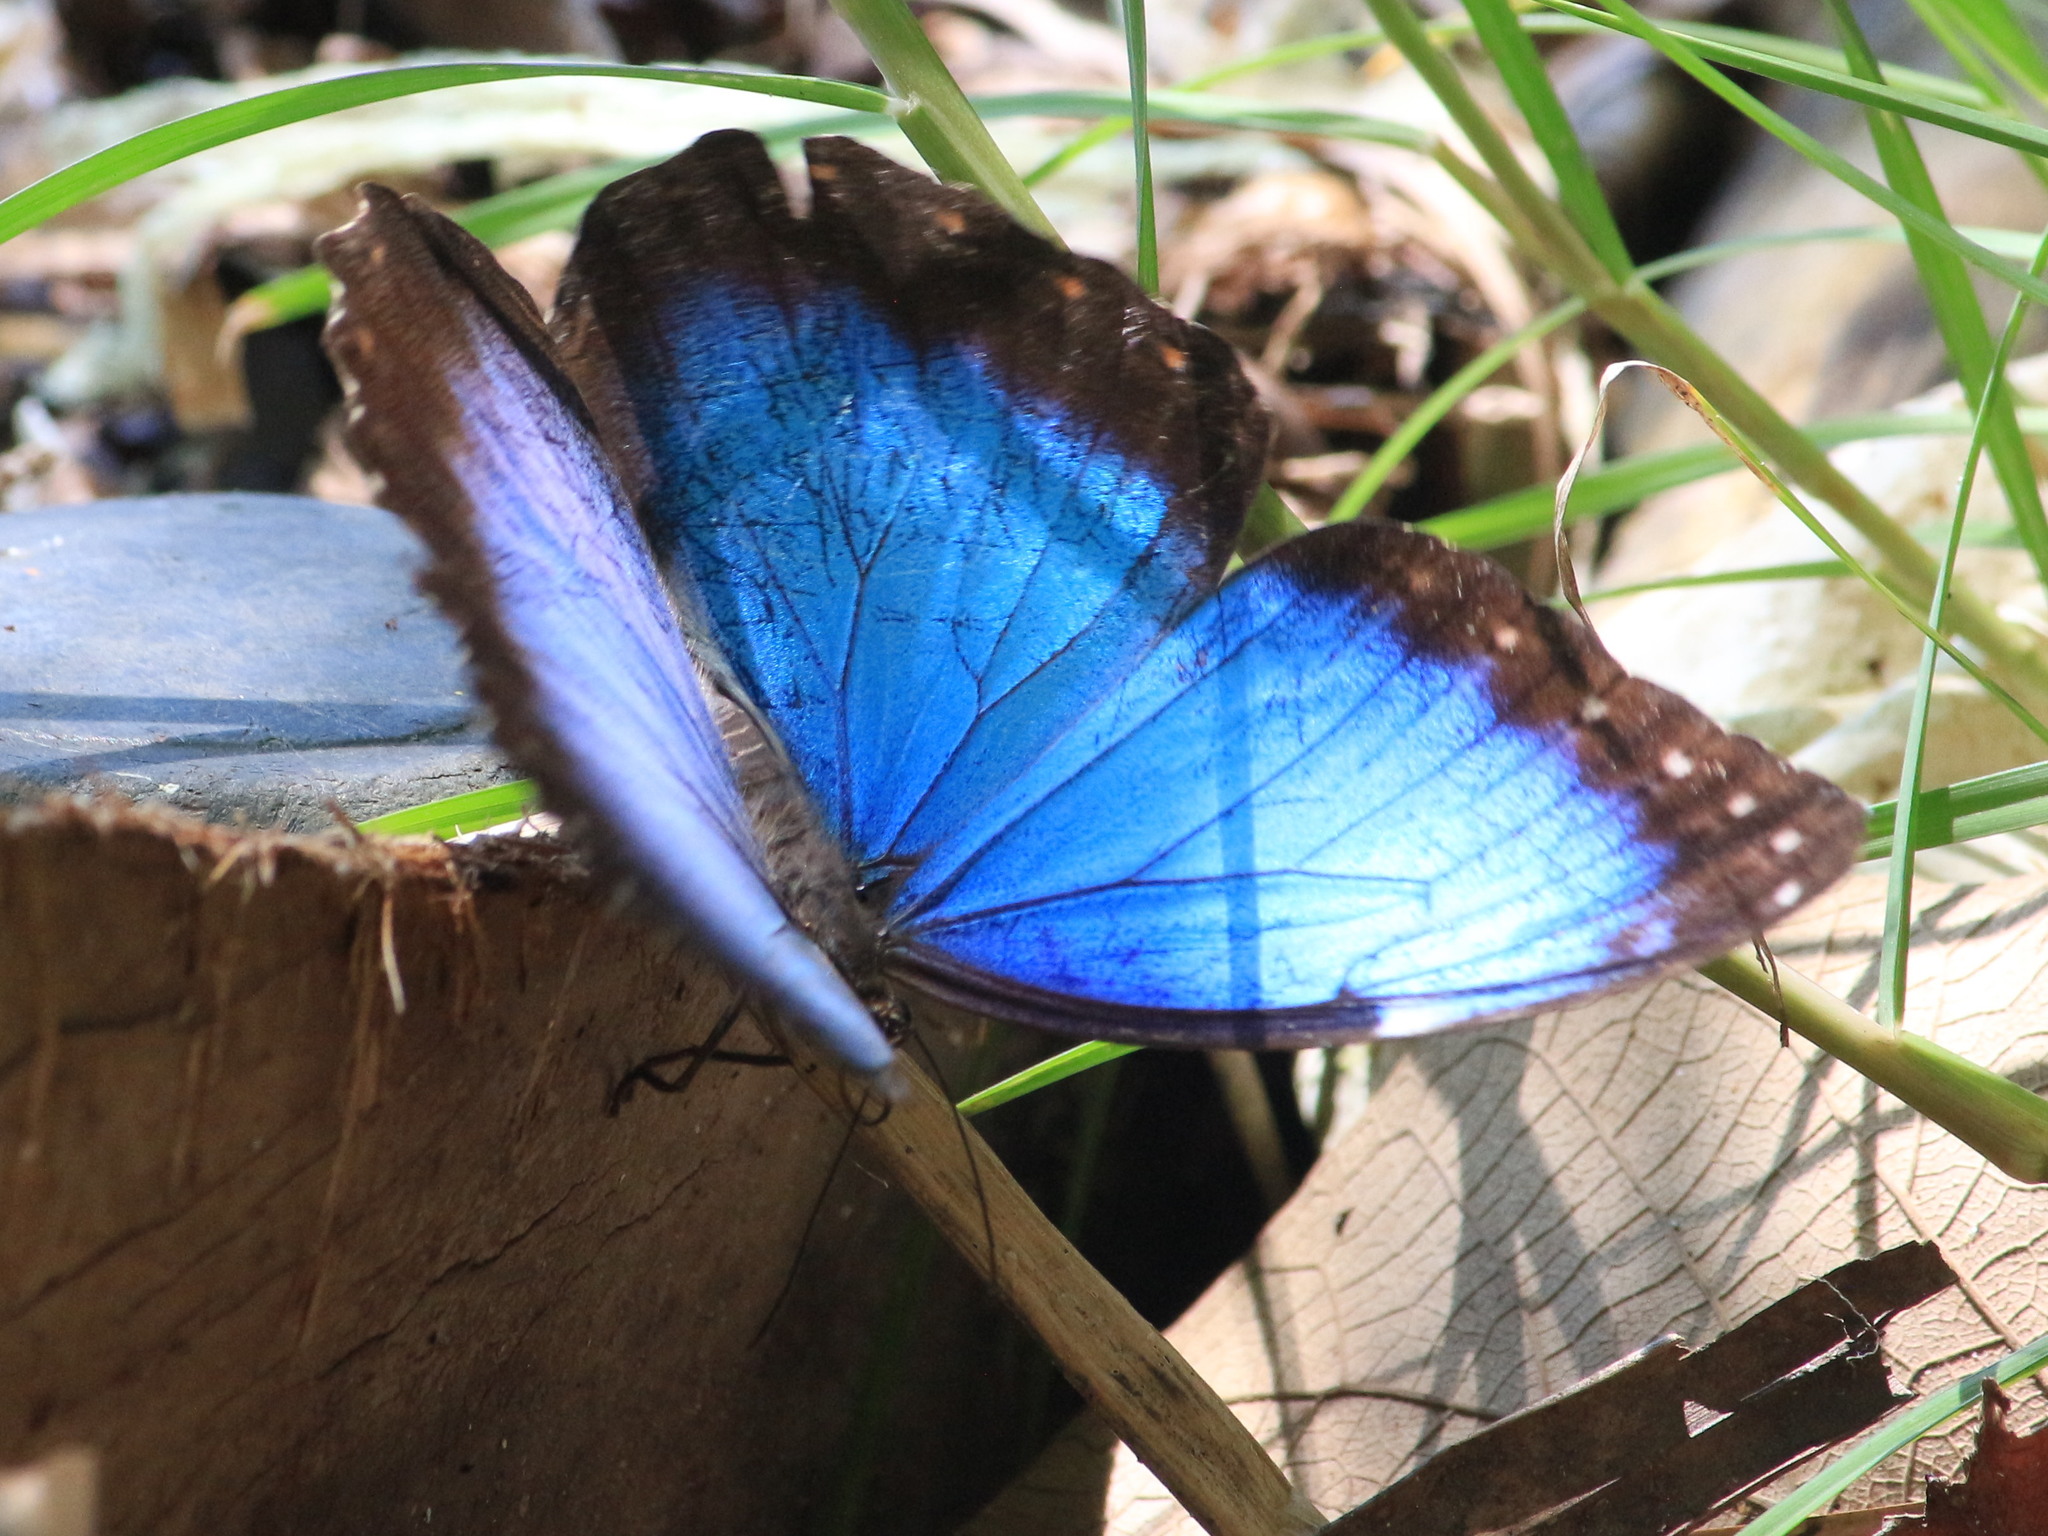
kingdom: Animalia
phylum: Arthropoda
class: Insecta
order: Lepidoptera
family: Nymphalidae
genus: Morpho
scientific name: Morpho helenor
